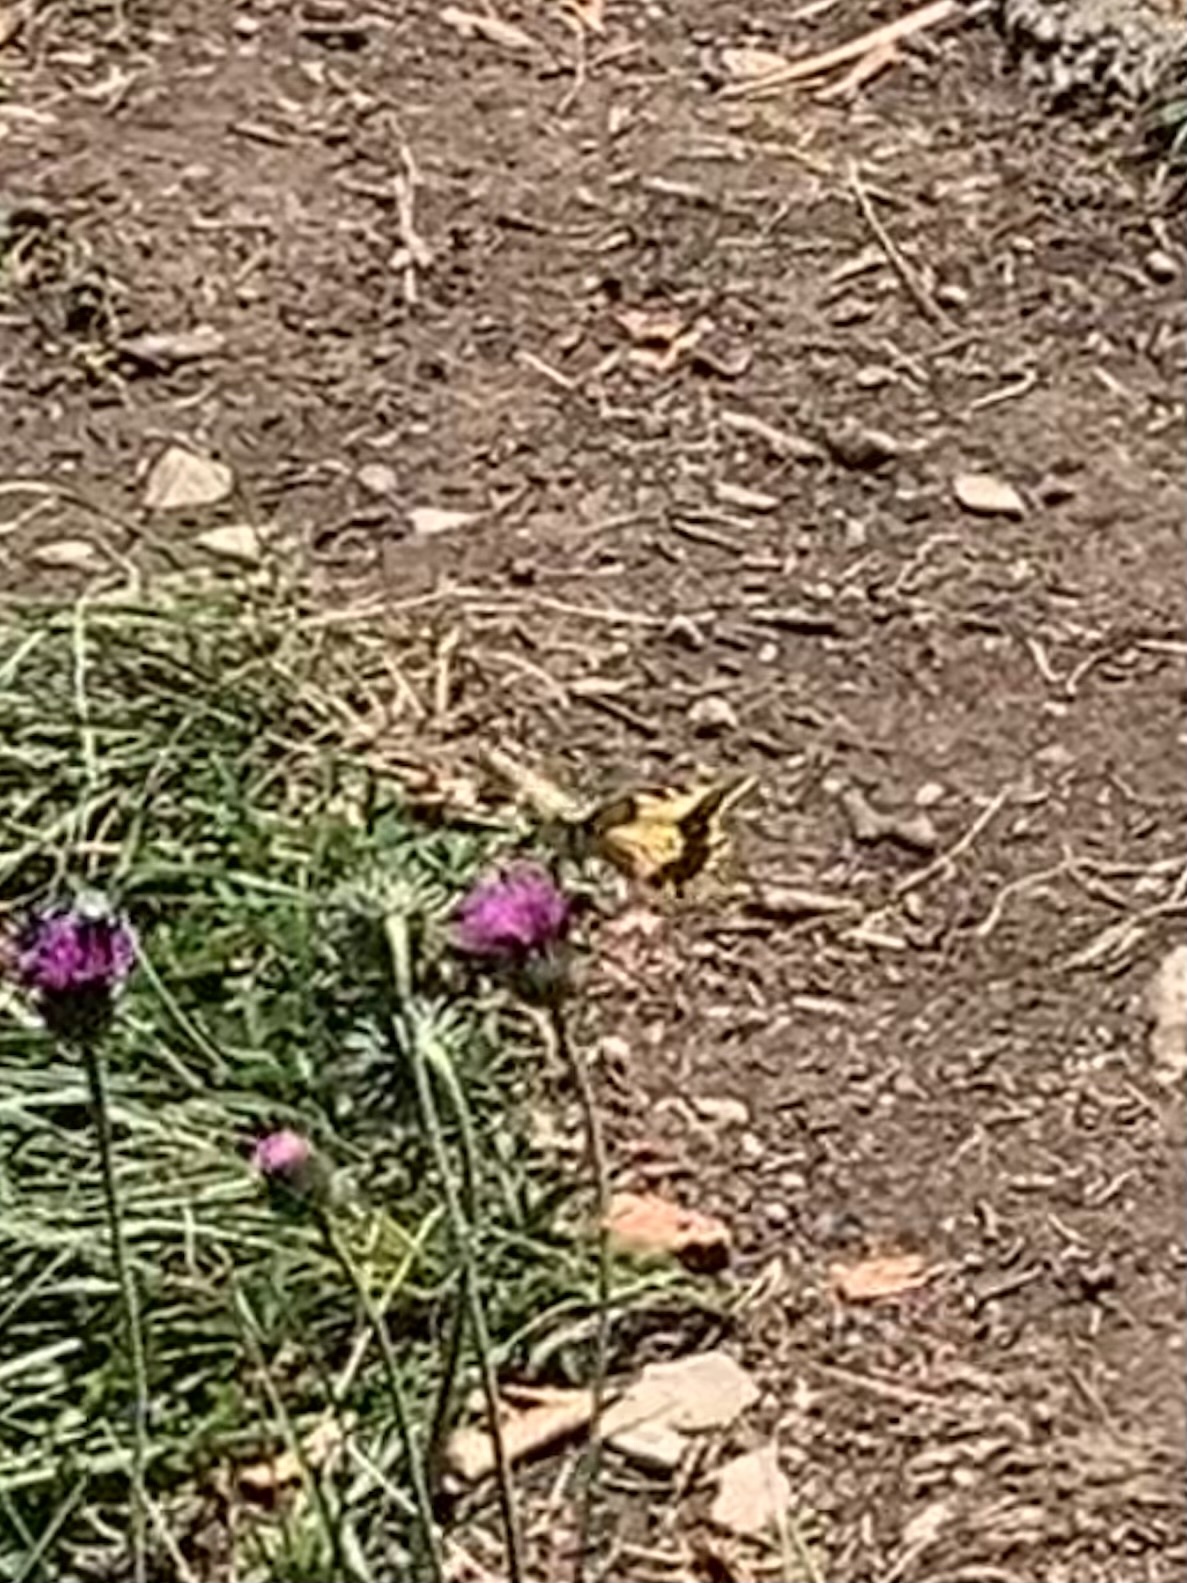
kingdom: Animalia
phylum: Arthropoda
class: Insecta
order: Lepidoptera
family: Papilionidae
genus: Papilio
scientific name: Papilio machaon
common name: Swallowtail
